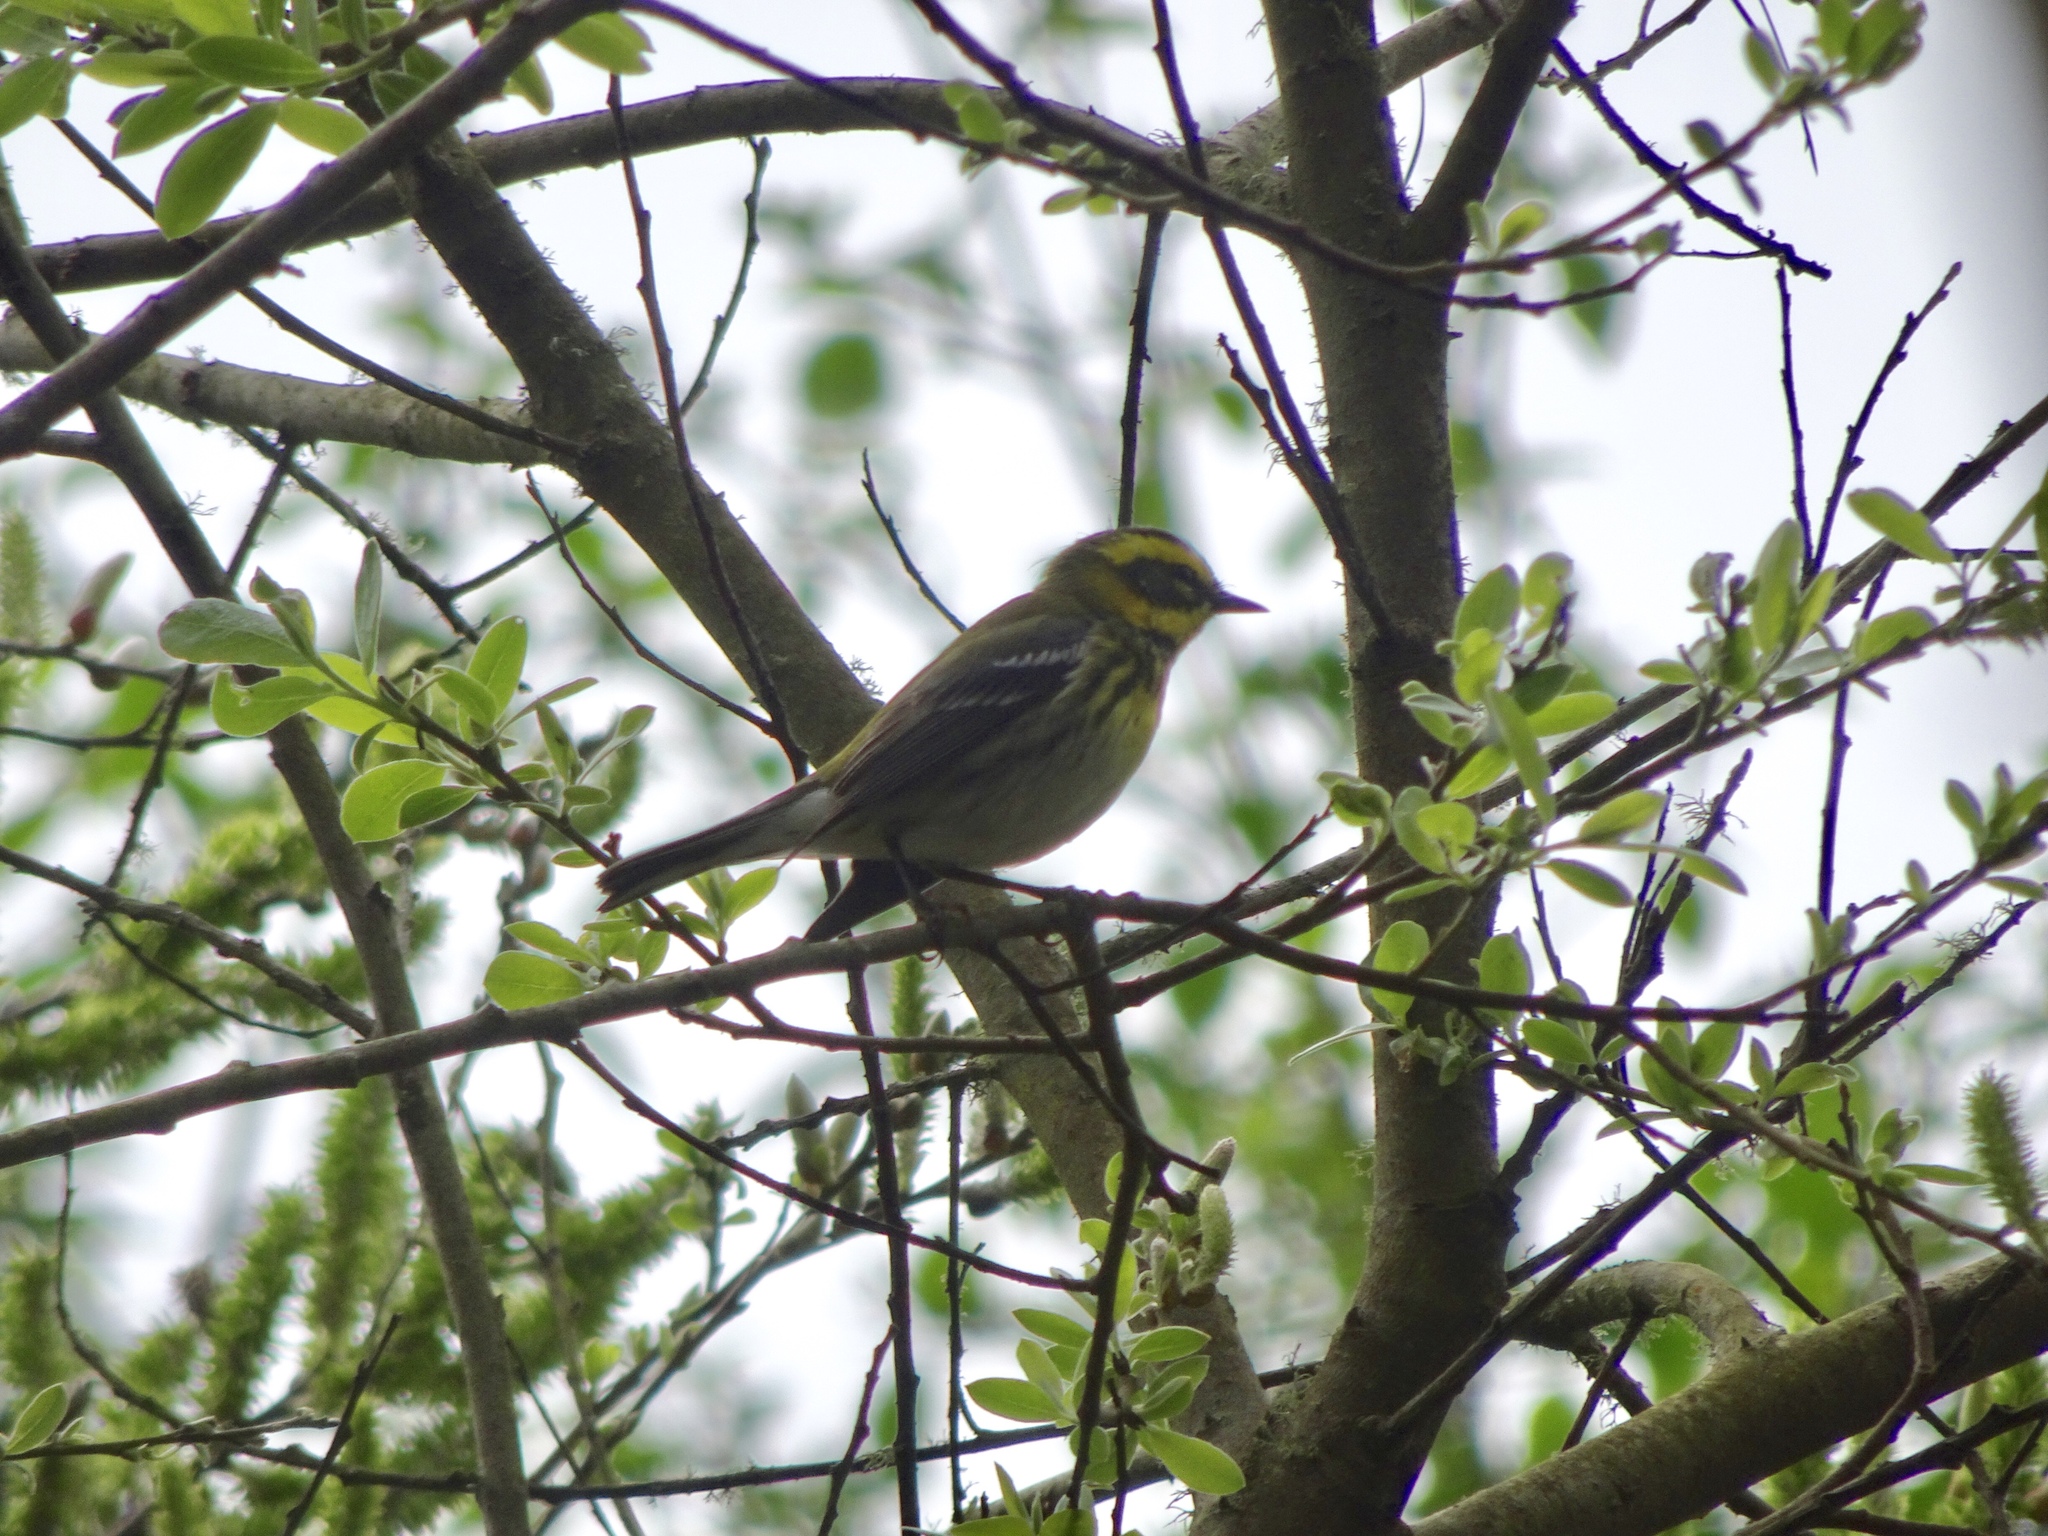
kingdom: Animalia
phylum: Chordata
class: Aves
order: Passeriformes
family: Parulidae
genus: Setophaga
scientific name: Setophaga townsendi
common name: Townsend's warbler
